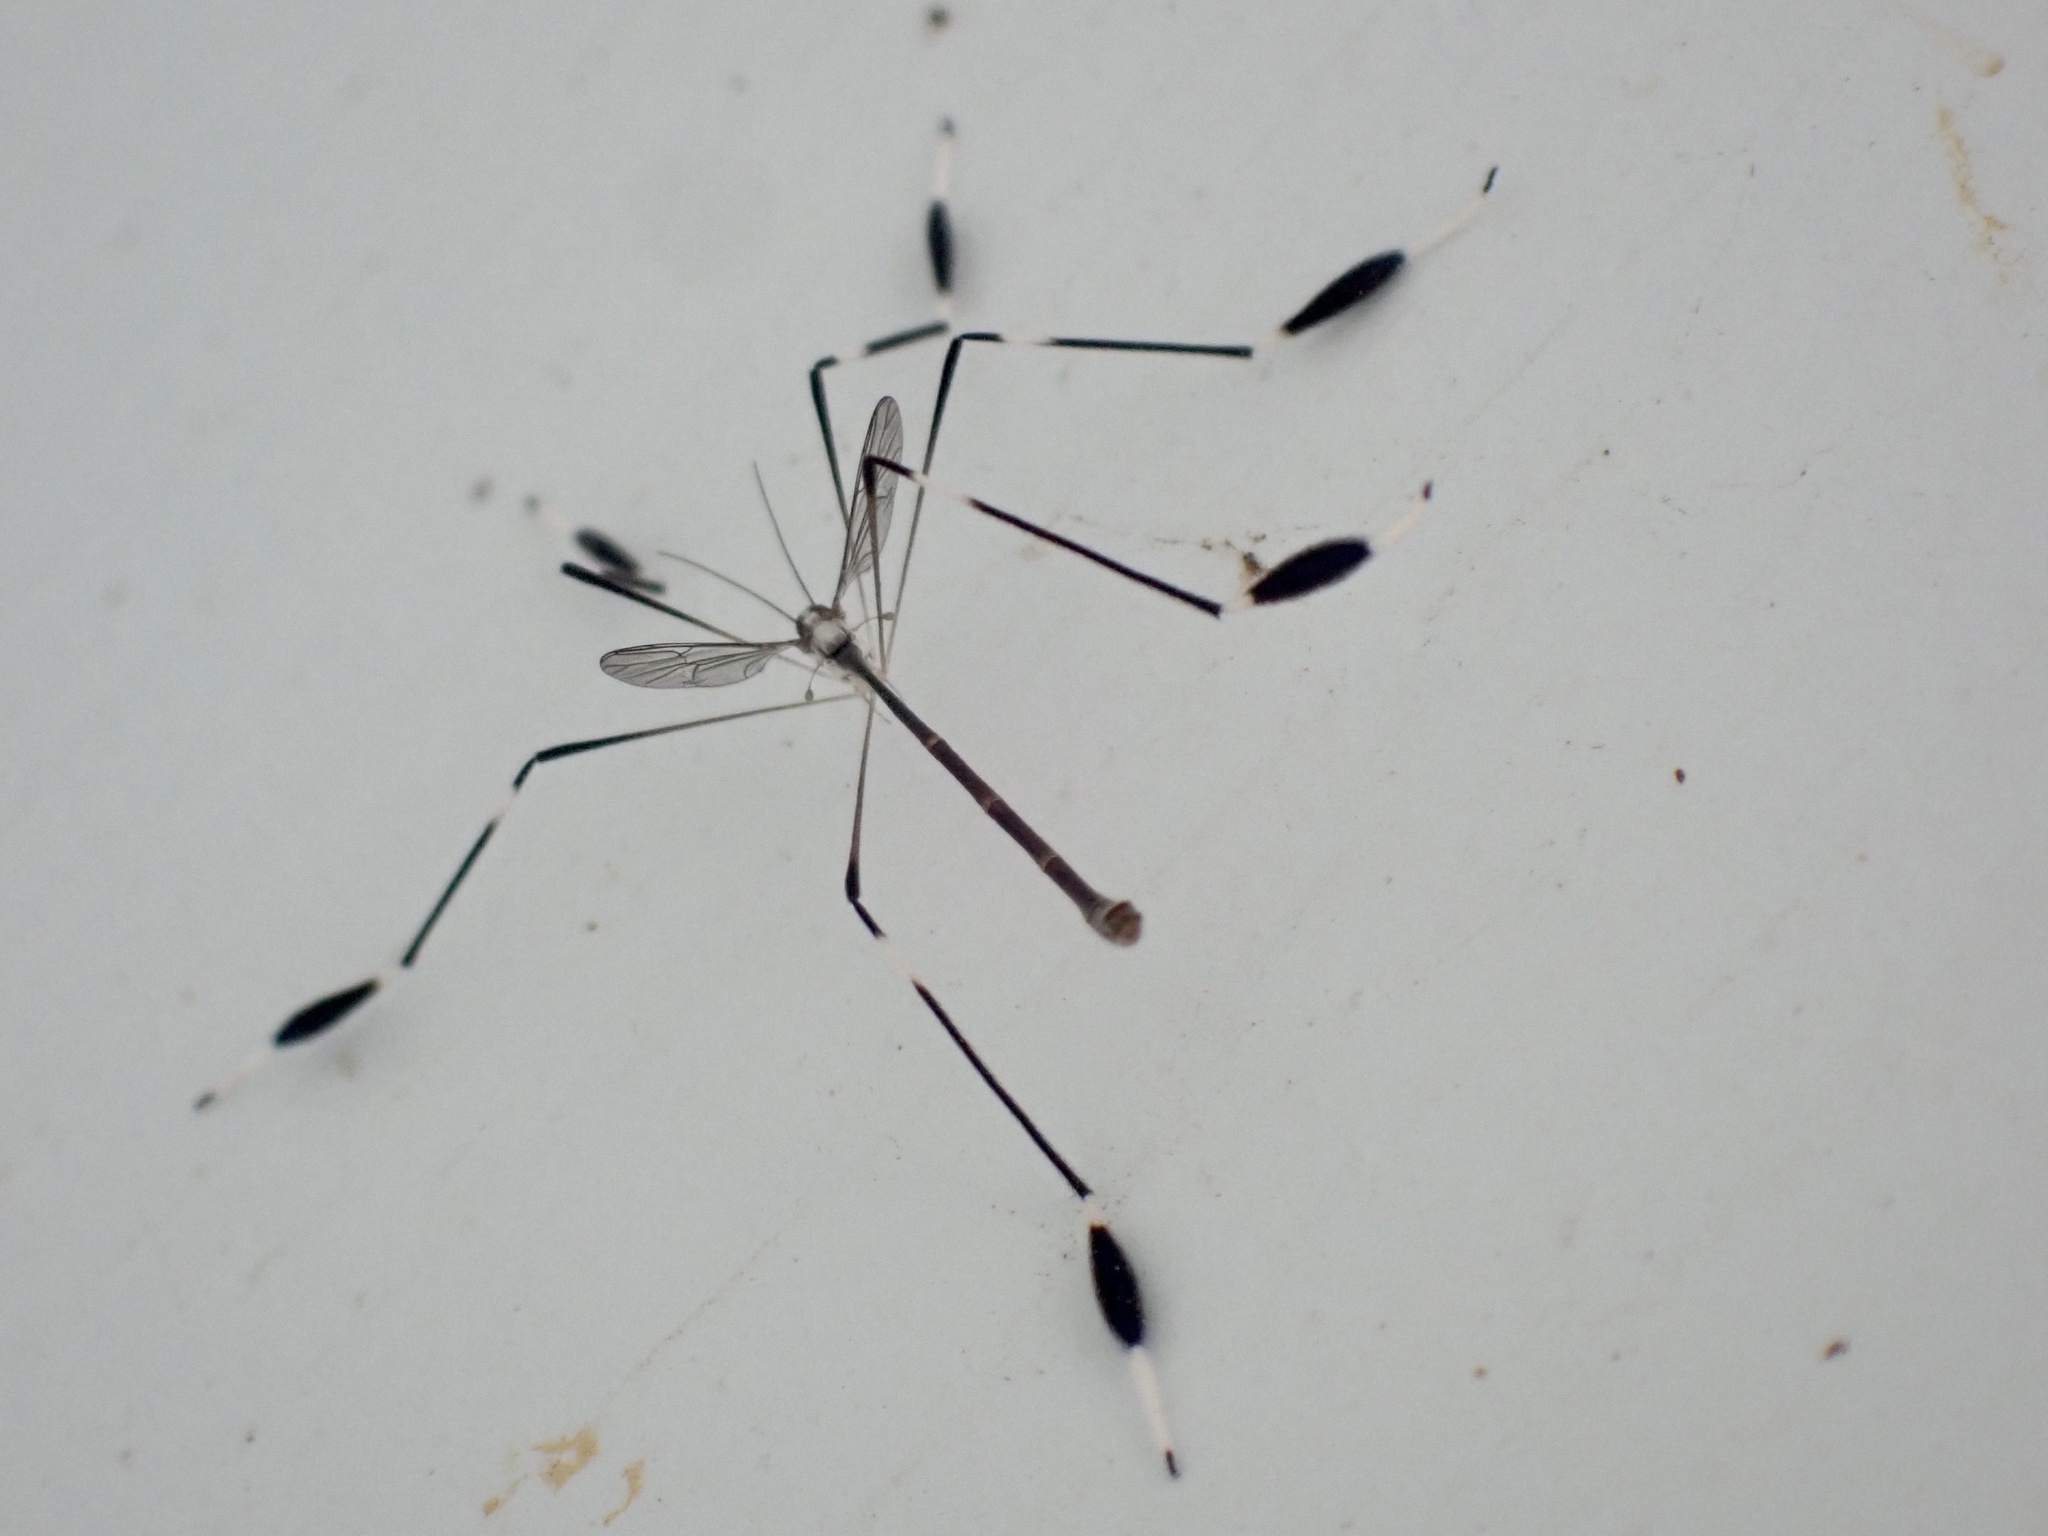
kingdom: Animalia
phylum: Arthropoda
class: Insecta
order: Diptera
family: Ptychopteridae
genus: Bittacomorpha
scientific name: Bittacomorpha clavipes
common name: Eastern phantom crane fly
